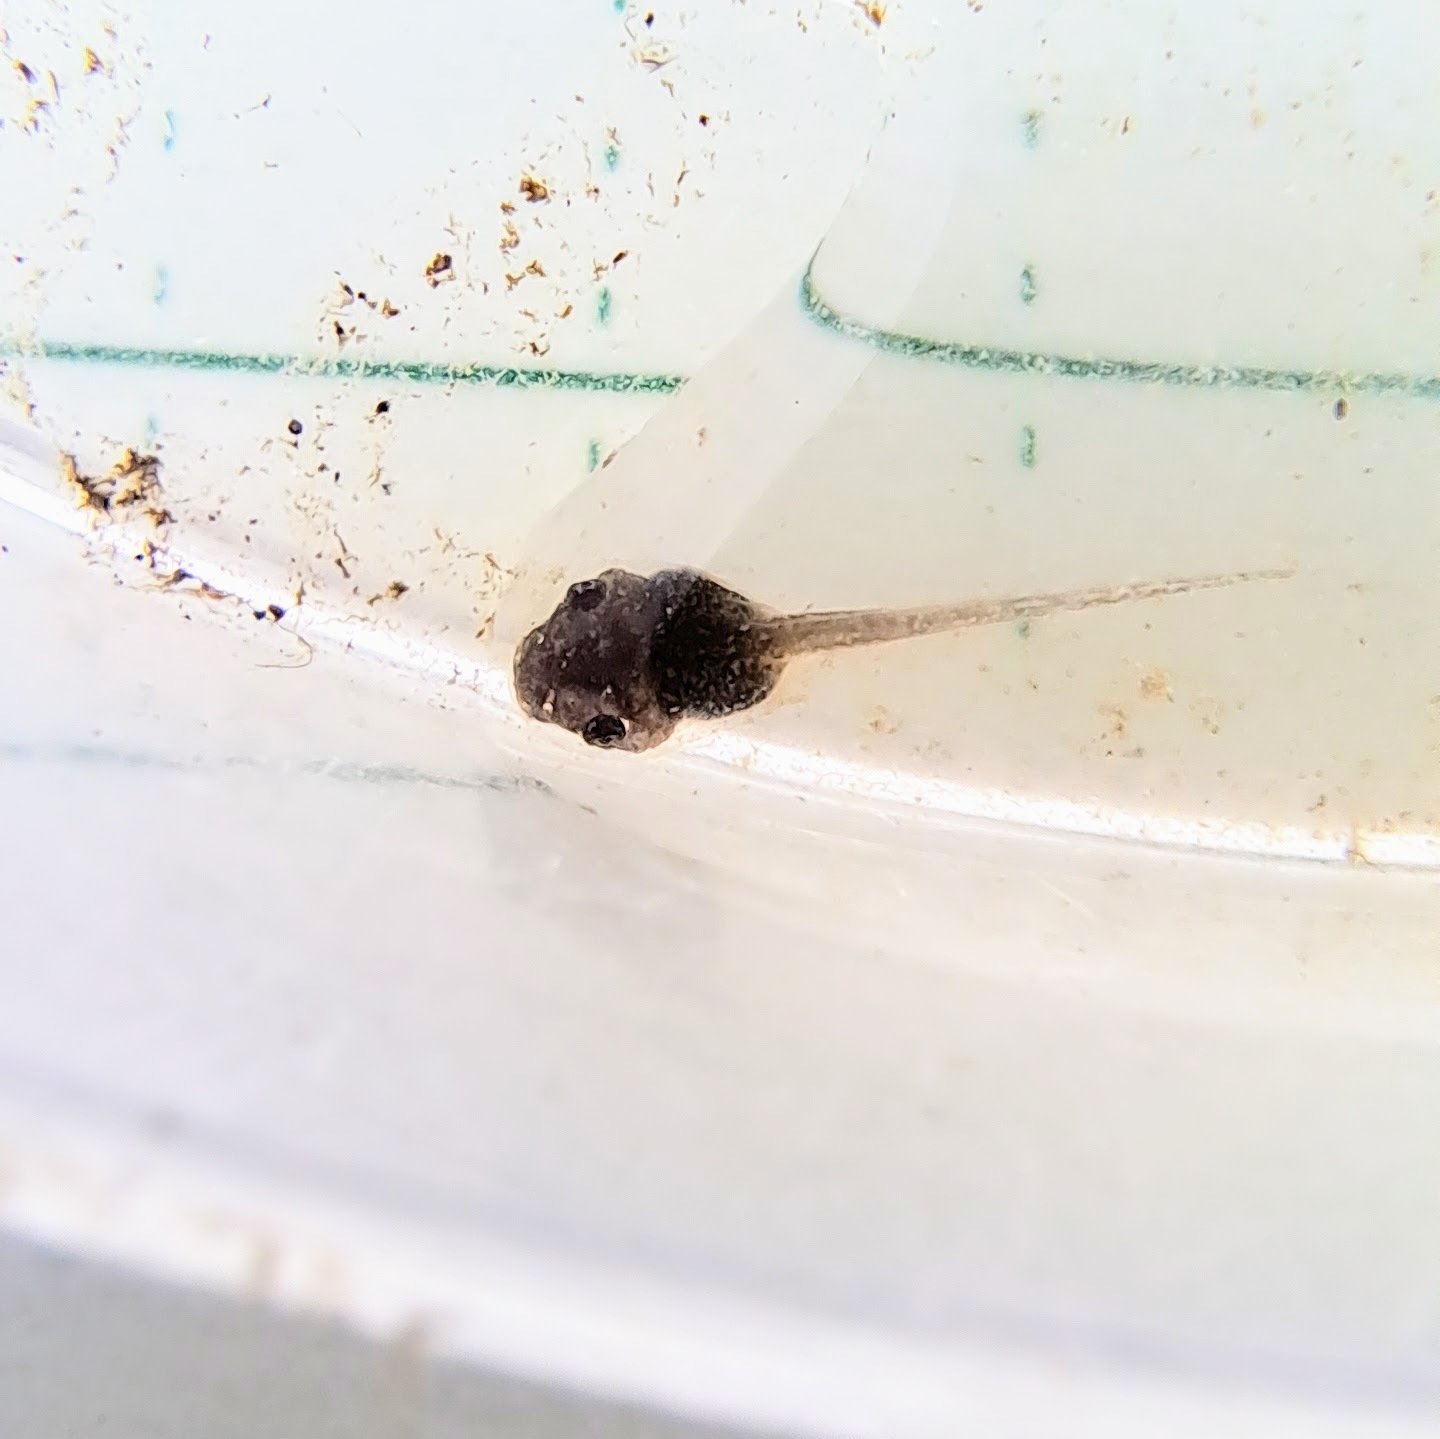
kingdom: Animalia
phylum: Chordata
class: Amphibia
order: Anura
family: Hylidae
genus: Pseudacris
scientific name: Pseudacris maculata
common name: Boreal chorus frog
